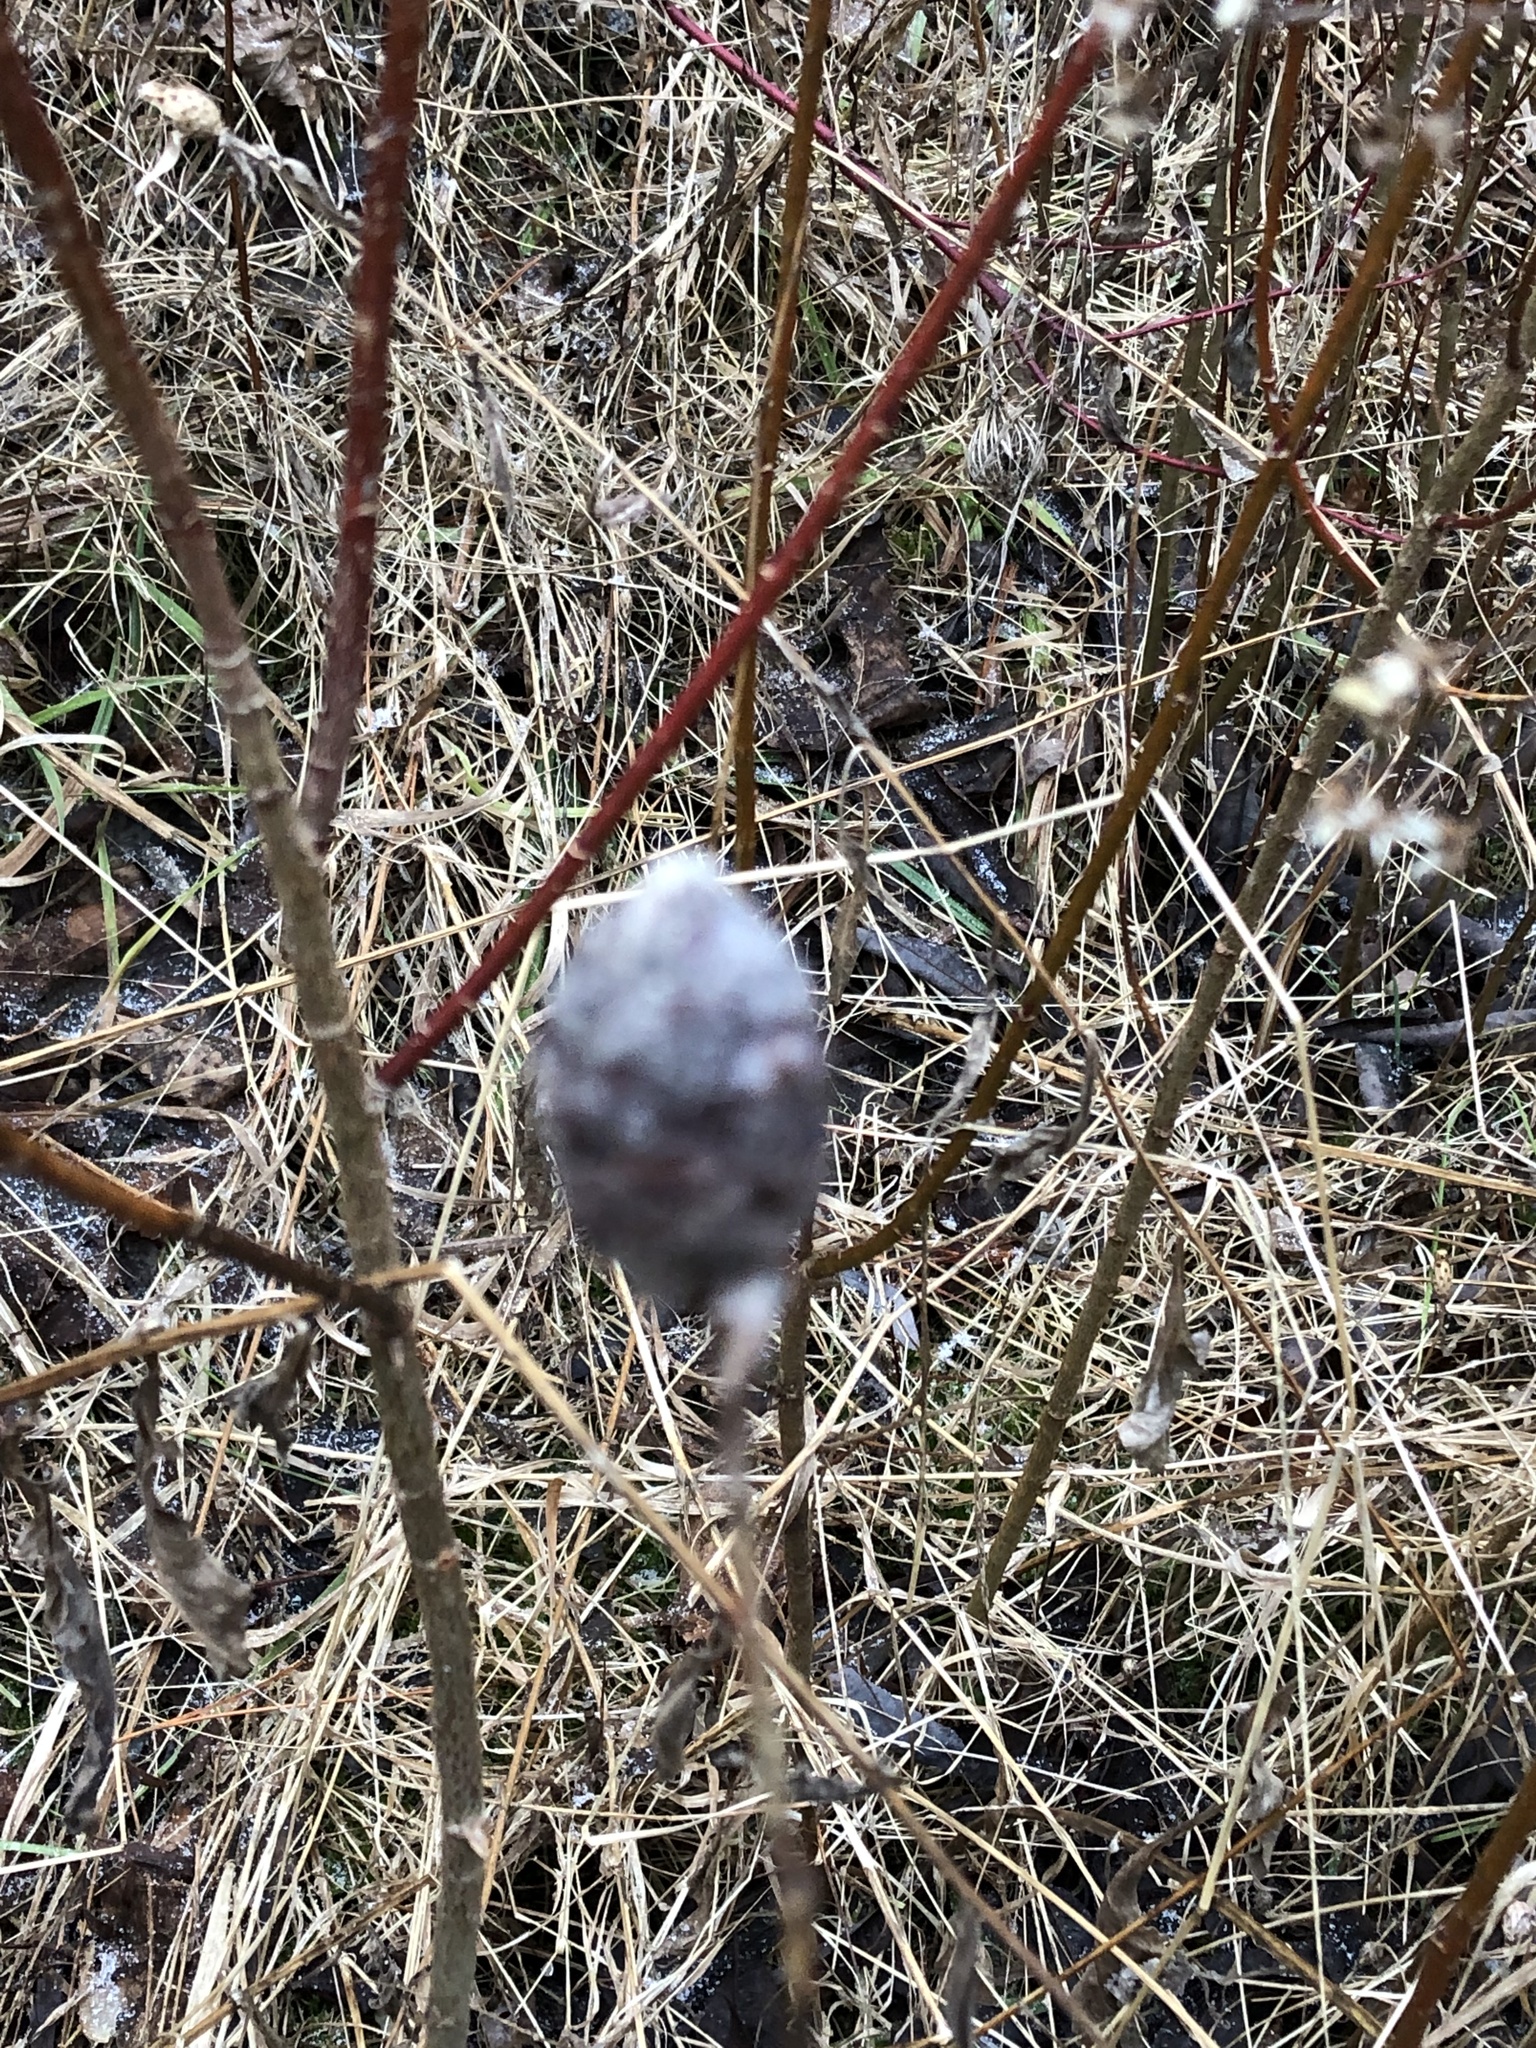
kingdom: Animalia
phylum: Arthropoda
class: Insecta
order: Diptera
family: Cecidomyiidae
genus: Rabdophaga
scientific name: Rabdophaga strobiloides
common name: Willow pinecone gall midge
